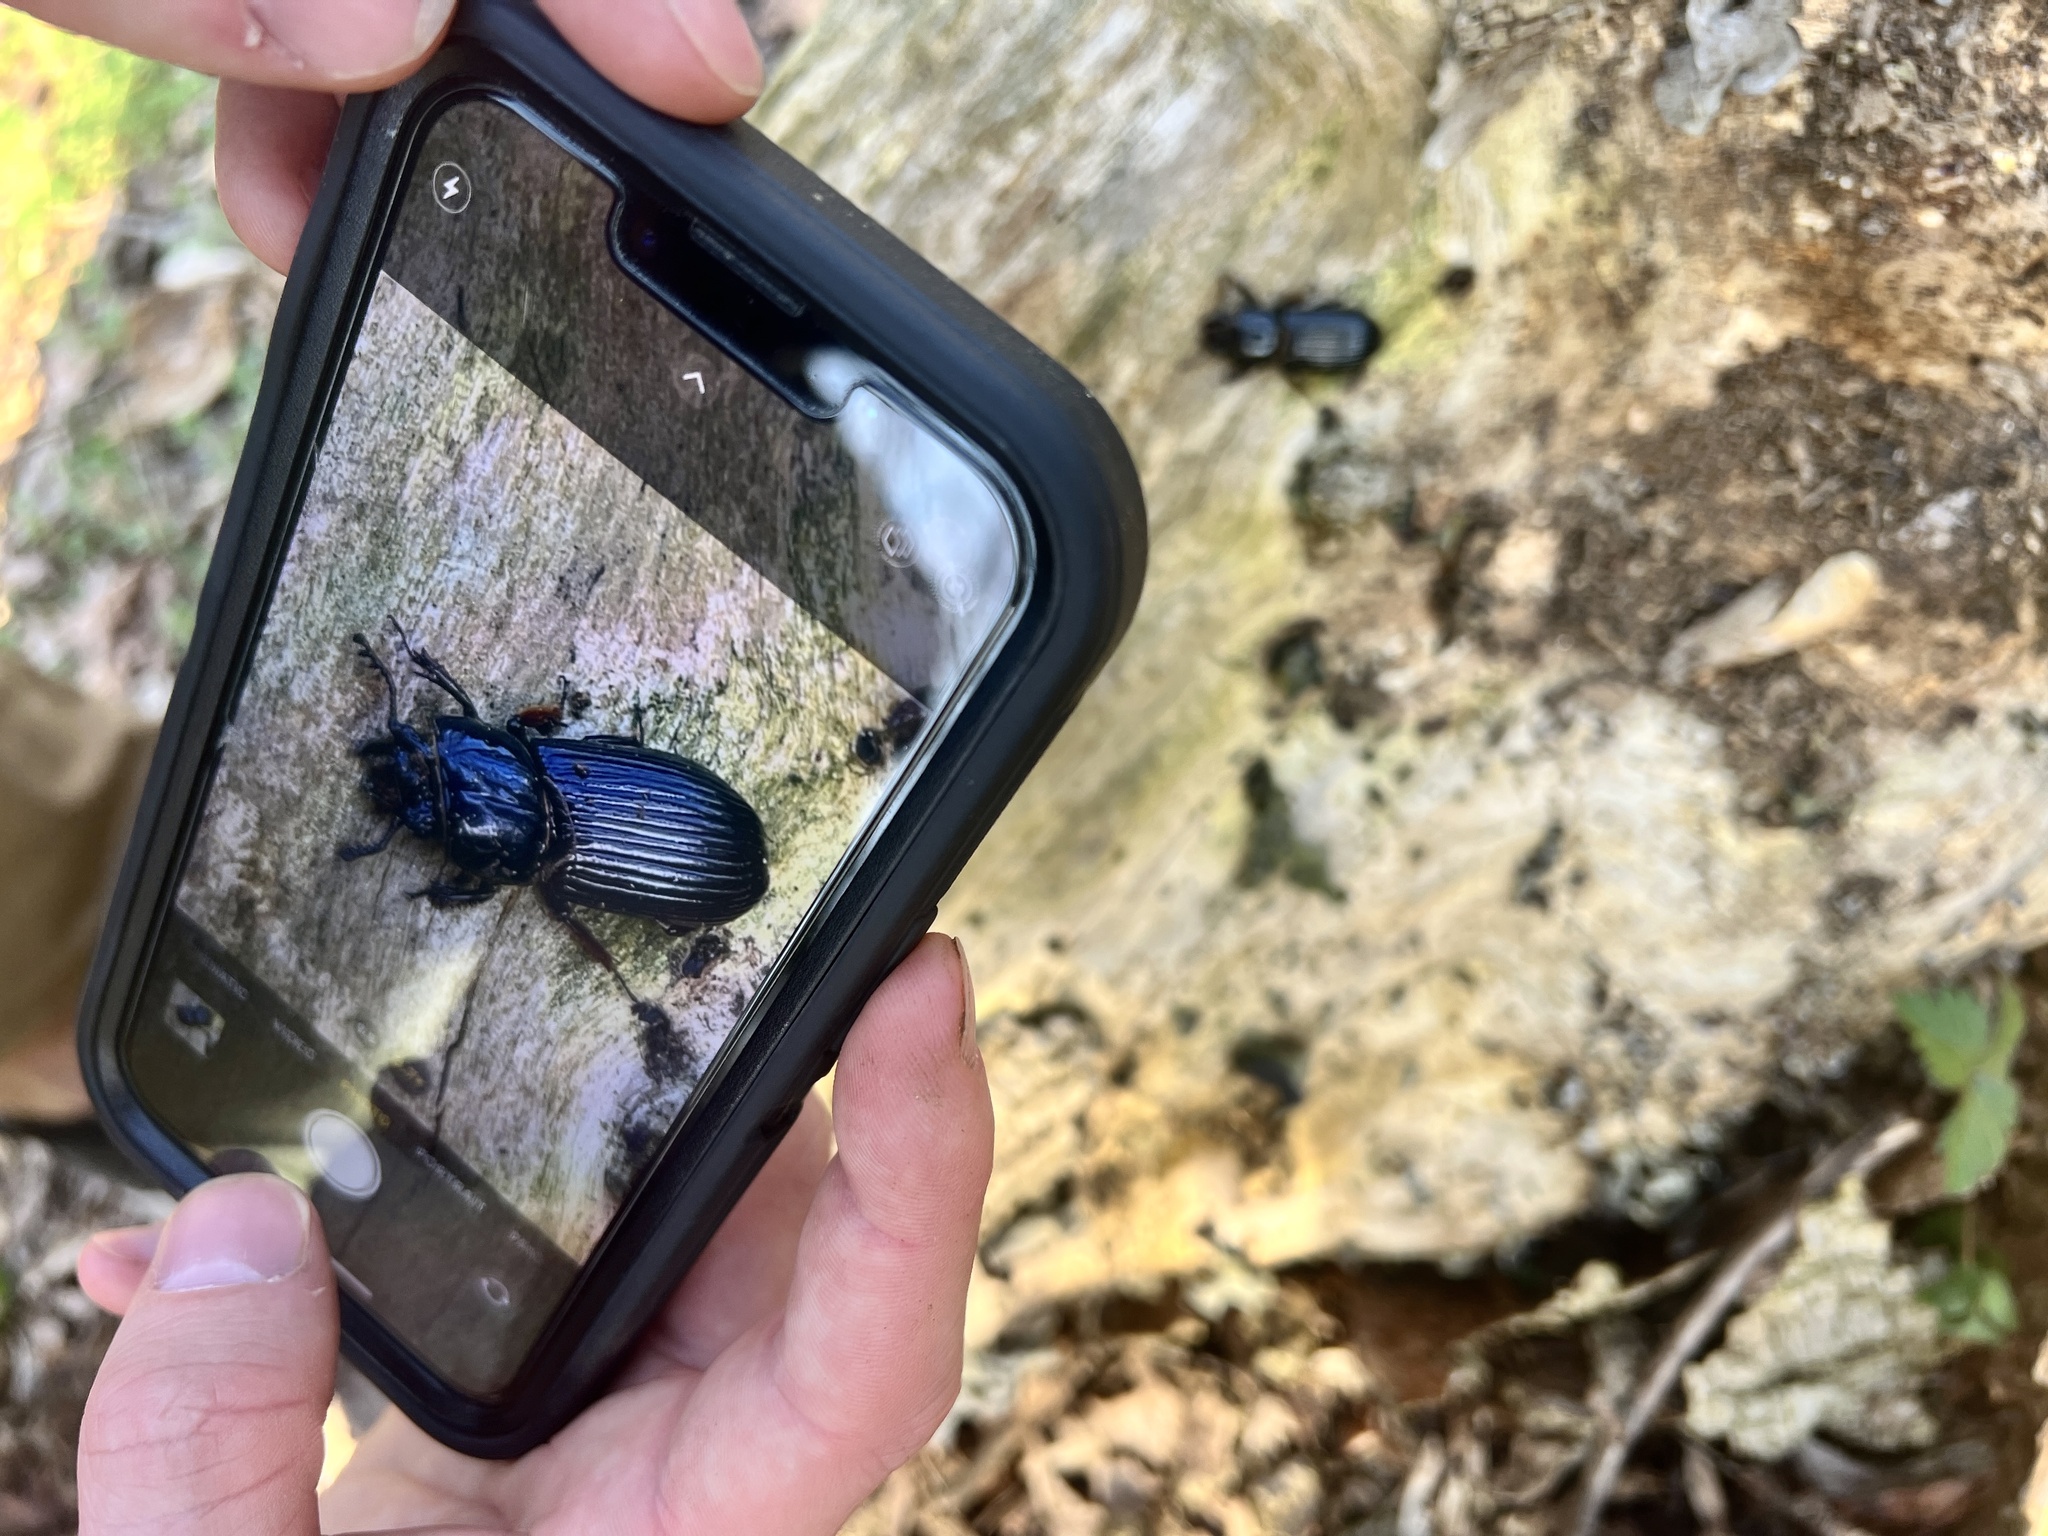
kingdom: Animalia
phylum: Arthropoda
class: Insecta
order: Coleoptera
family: Passalidae
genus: Odontotaenius
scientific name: Odontotaenius disjunctus
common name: Patent leather beetle
